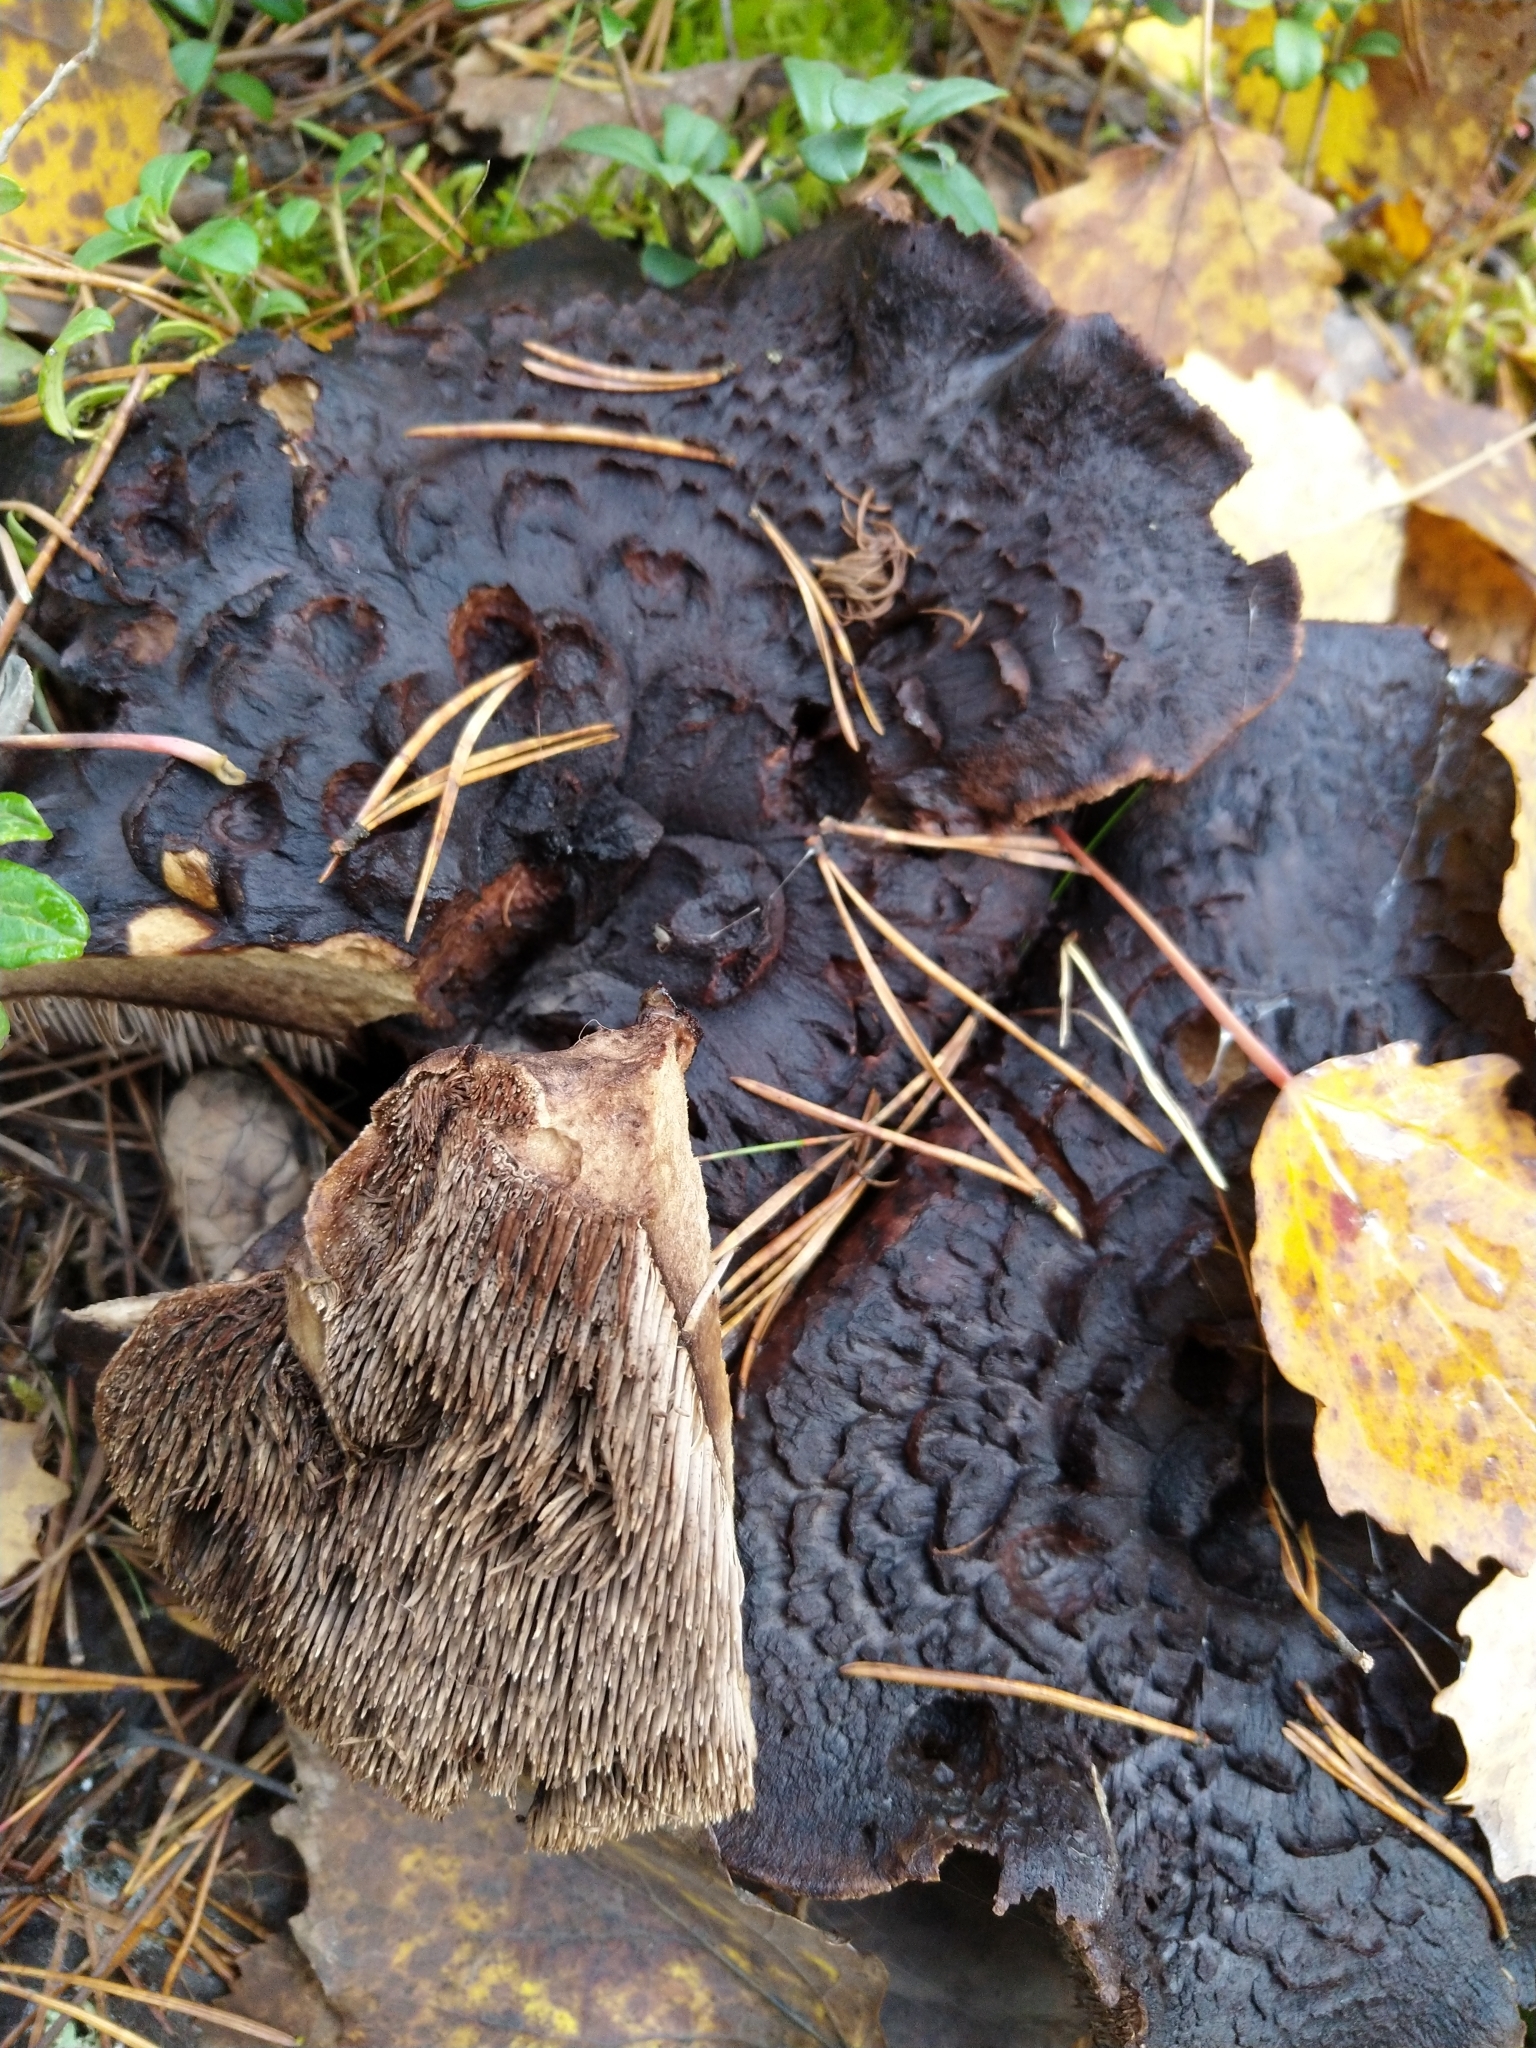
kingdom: Fungi
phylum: Basidiomycota
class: Agaricomycetes
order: Thelephorales
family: Bankeraceae
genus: Sarcodon
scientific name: Sarcodon squamosus
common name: Scaly tooth
